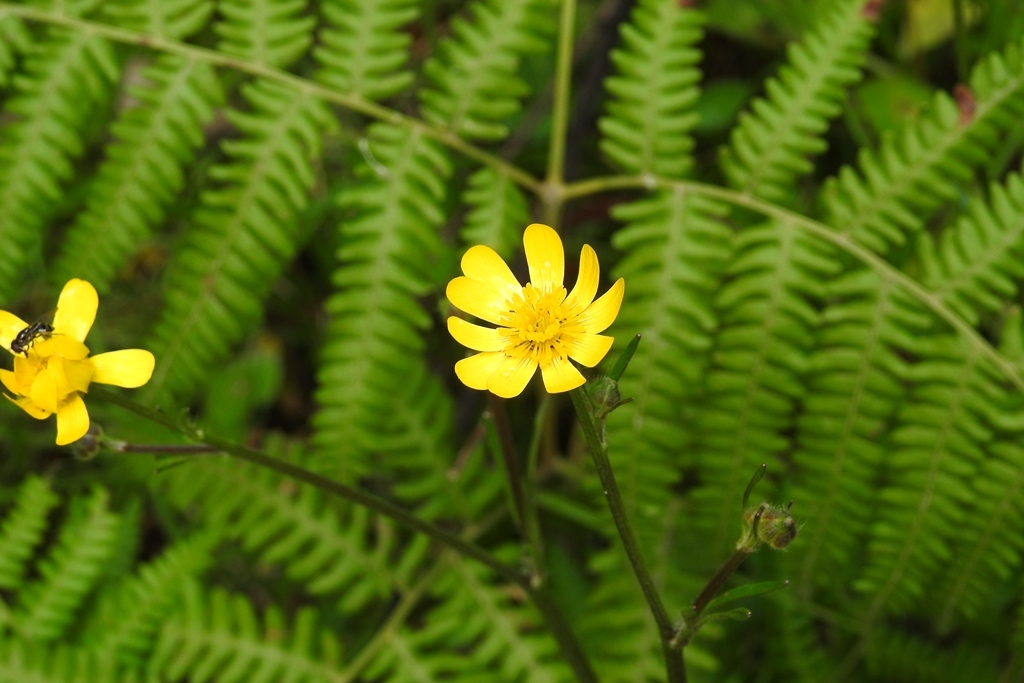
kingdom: Plantae
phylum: Tracheophyta
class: Magnoliopsida
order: Ranunculales
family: Ranunculaceae
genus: Ranunculus
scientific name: Ranunculus petiolaris
